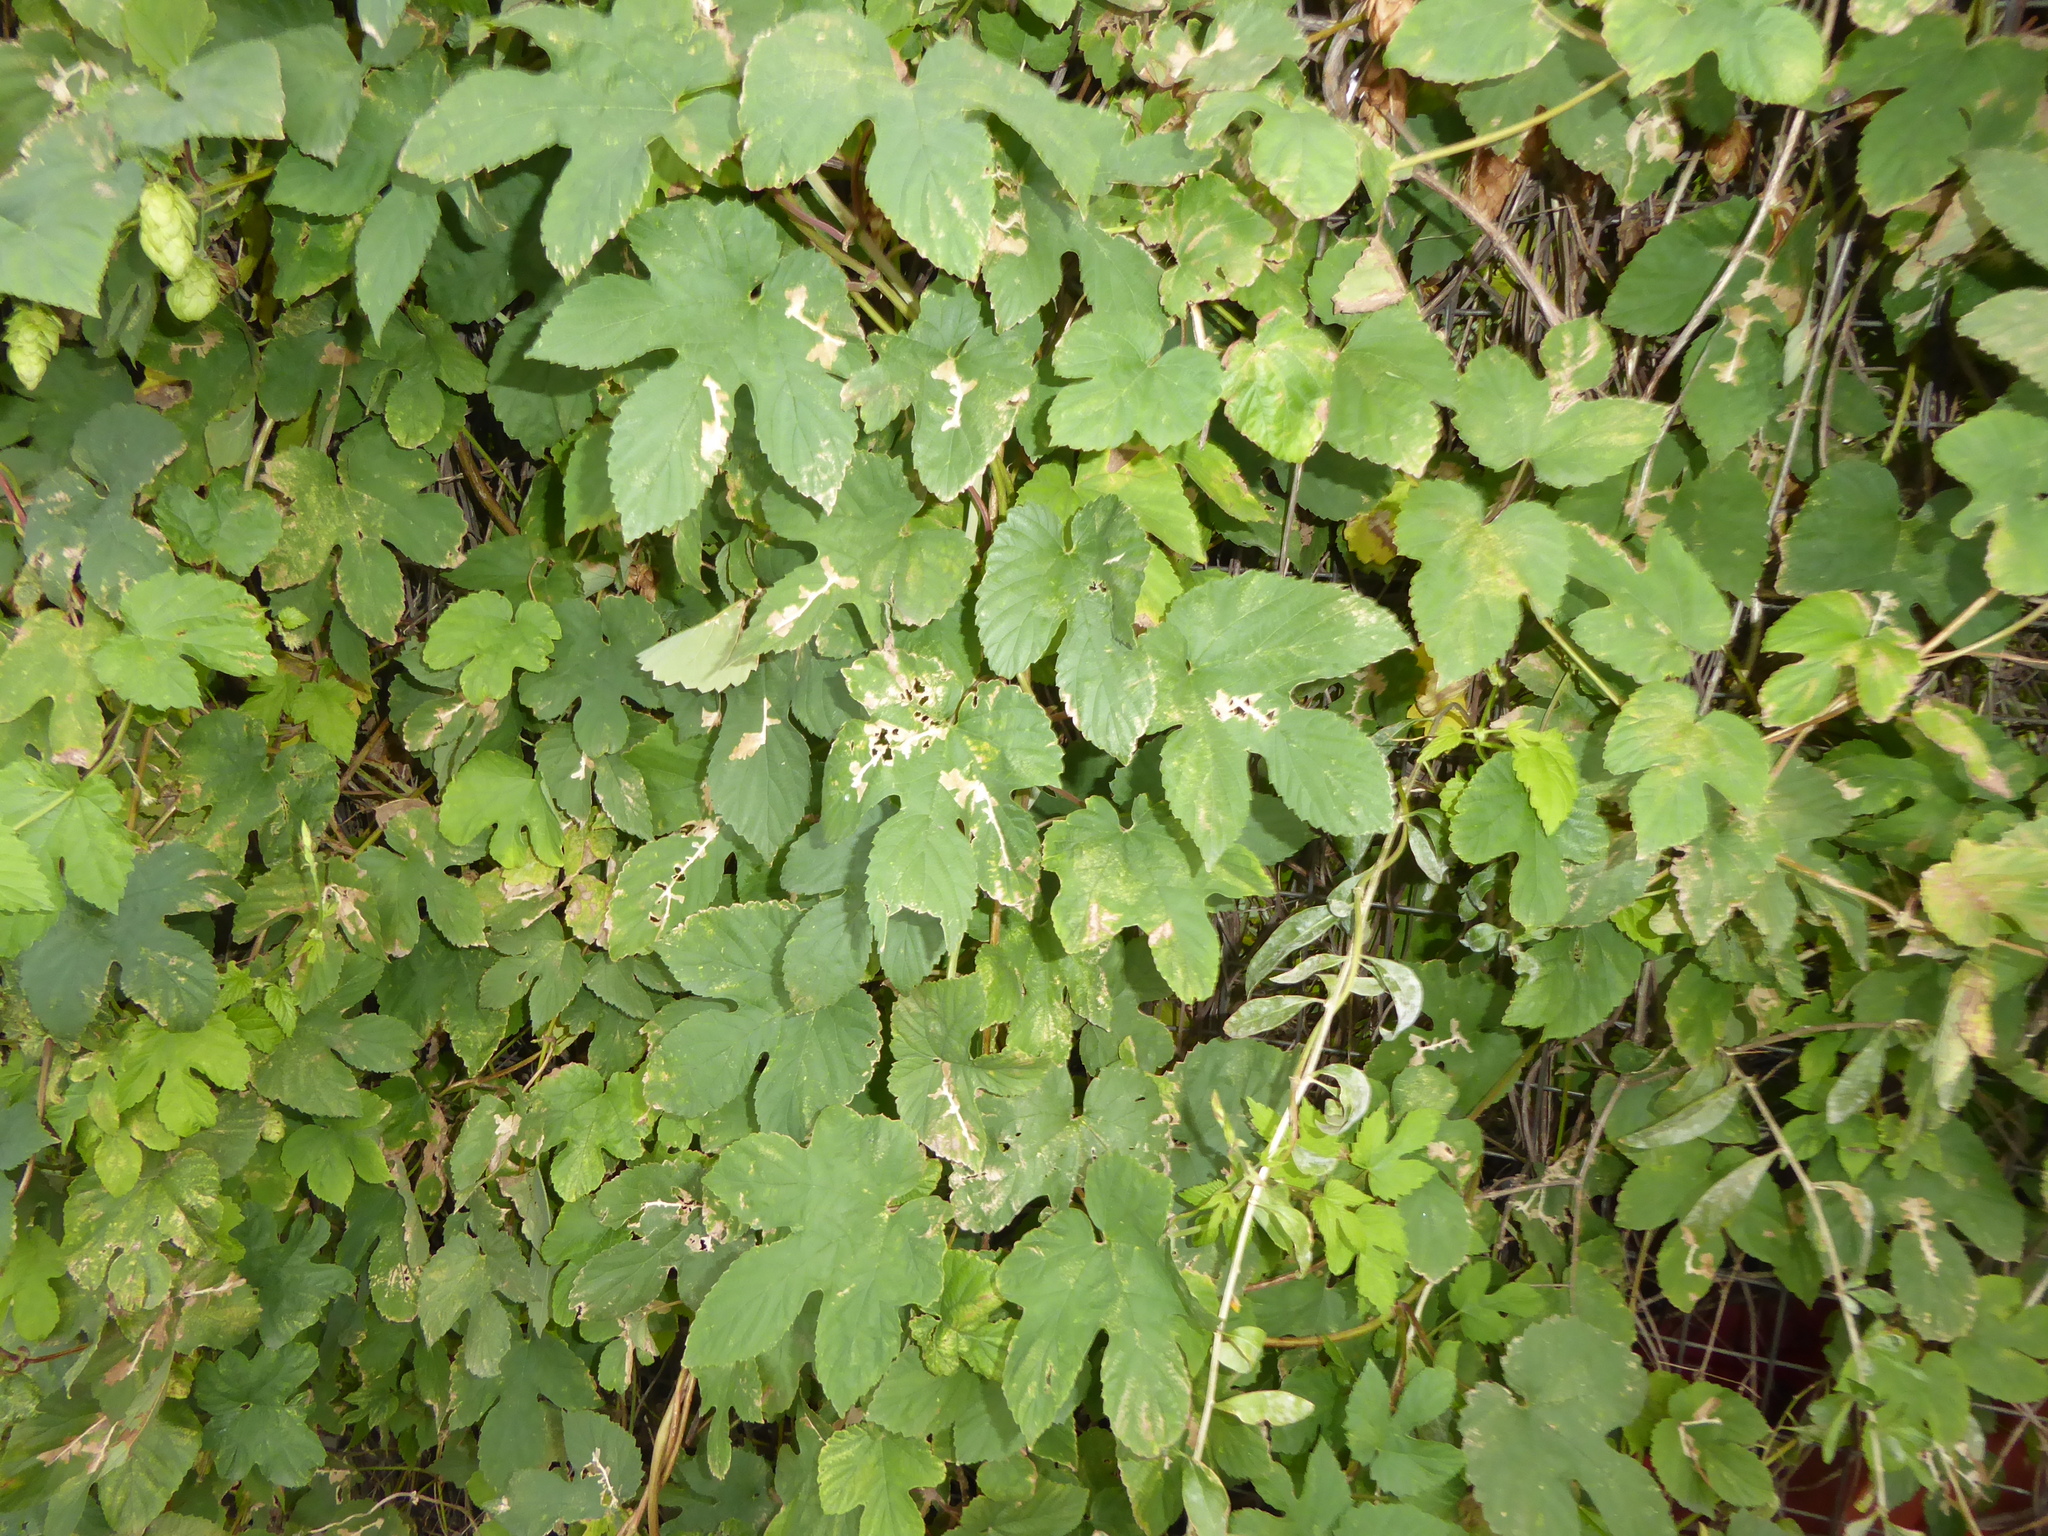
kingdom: Plantae
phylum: Tracheophyta
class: Magnoliopsida
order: Rosales
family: Cannabaceae
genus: Humulus
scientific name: Humulus lupulus
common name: Hop
